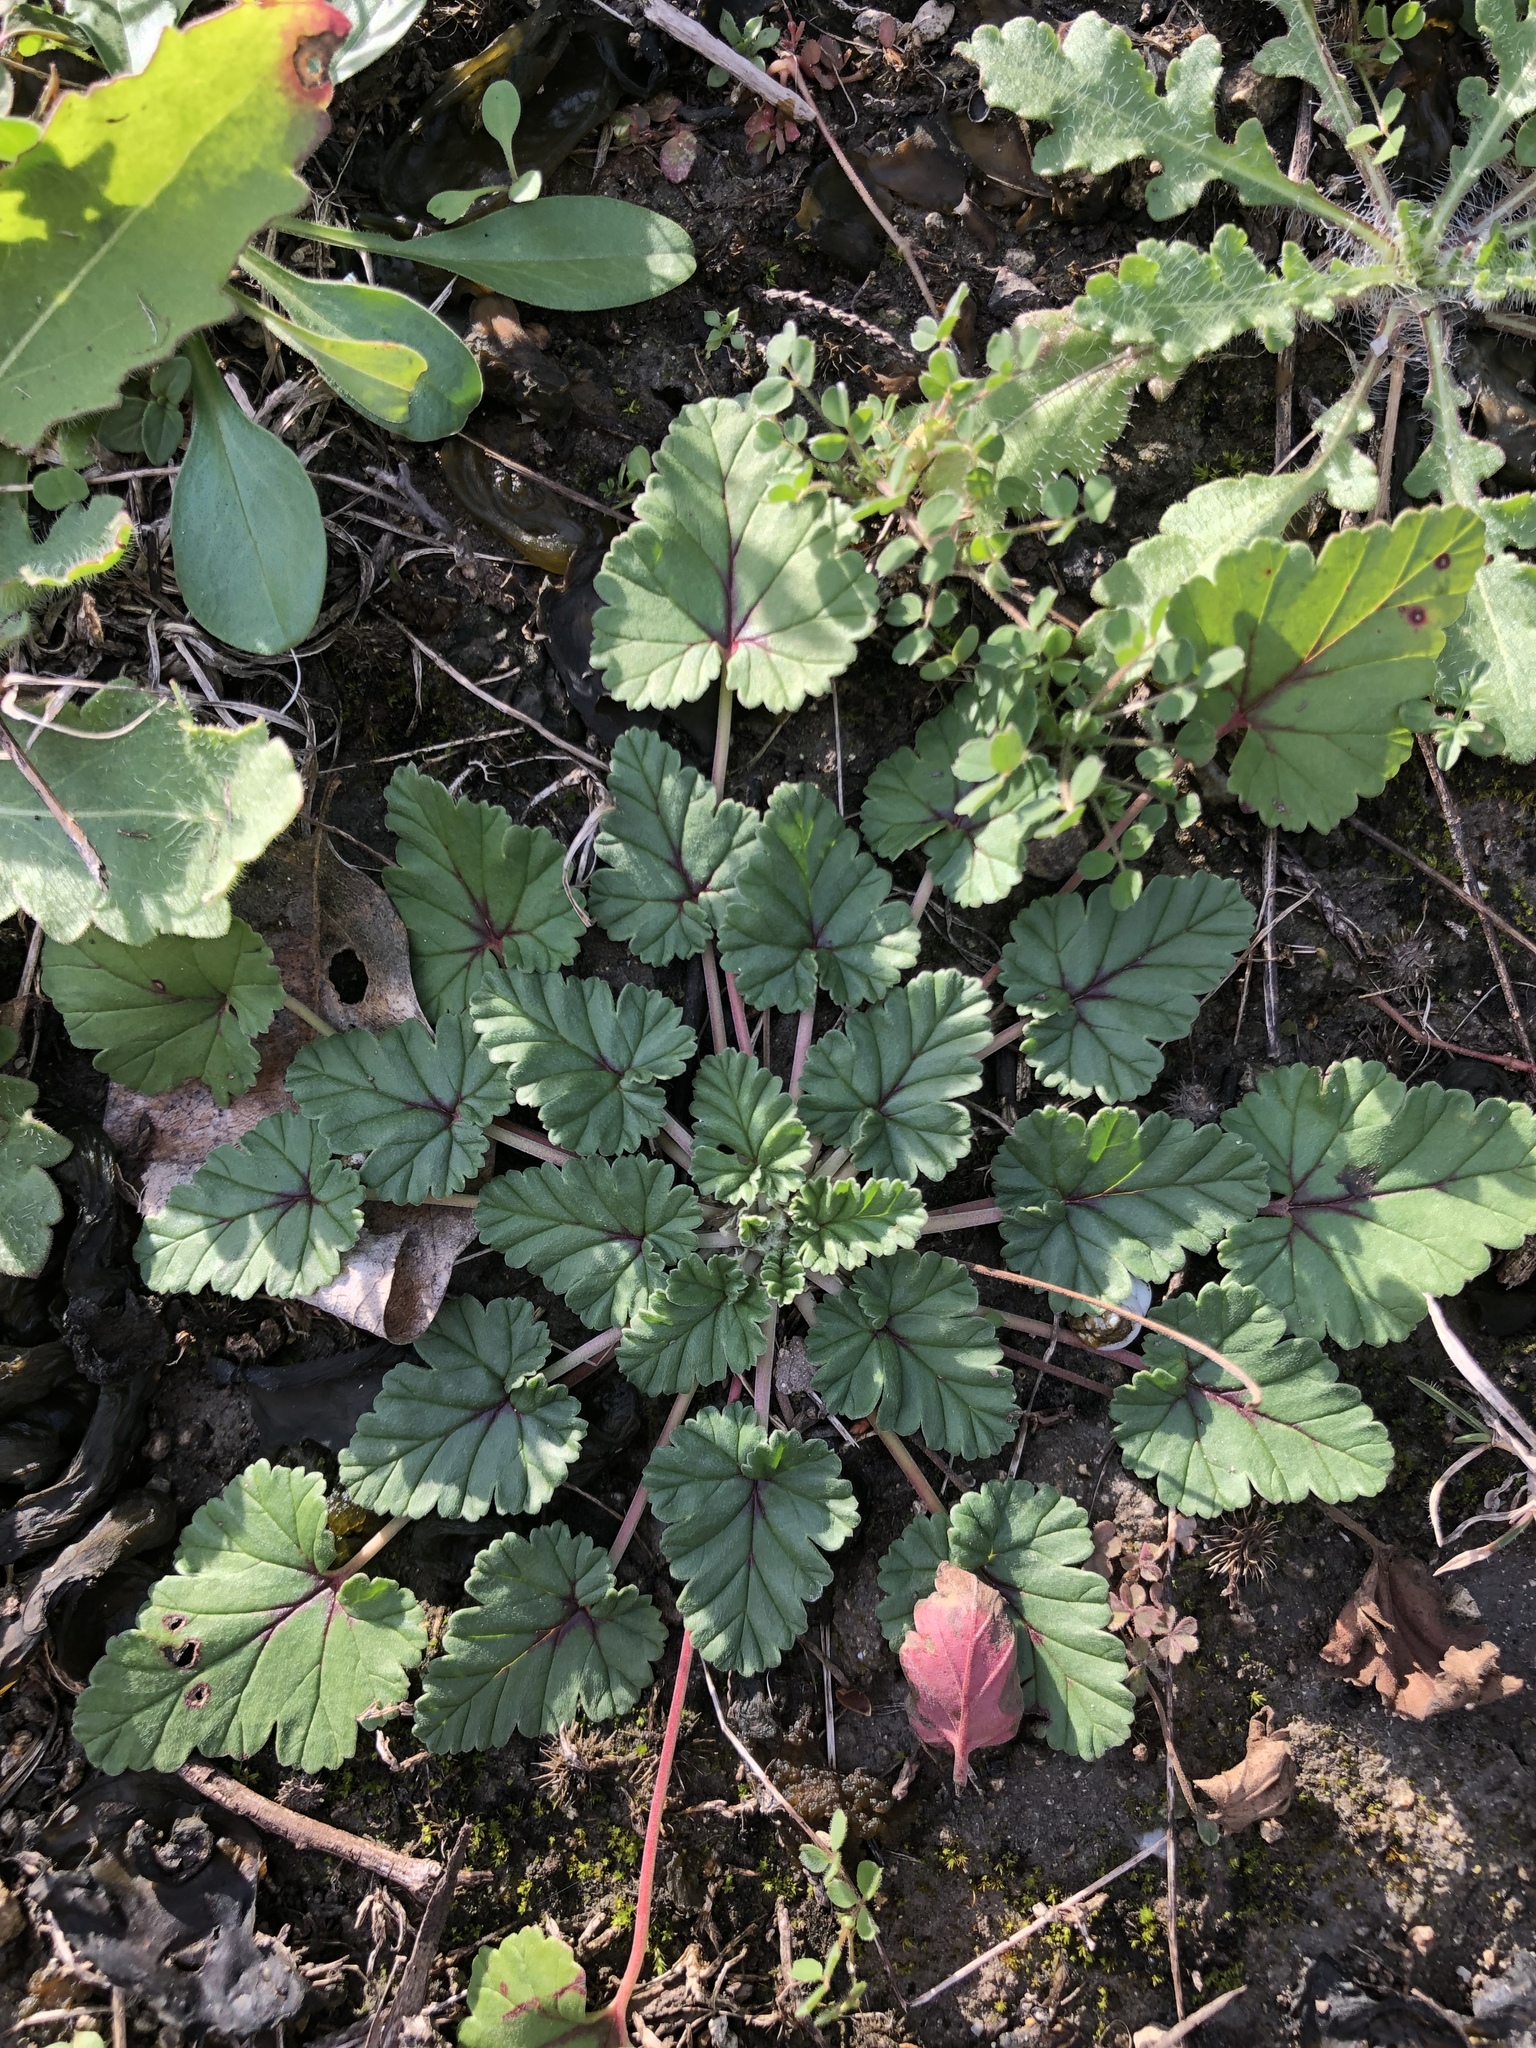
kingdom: Plantae
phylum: Tracheophyta
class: Magnoliopsida
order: Geraniales
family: Geraniaceae
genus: Erodium
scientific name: Erodium texanum
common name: Texas stork's-bill
